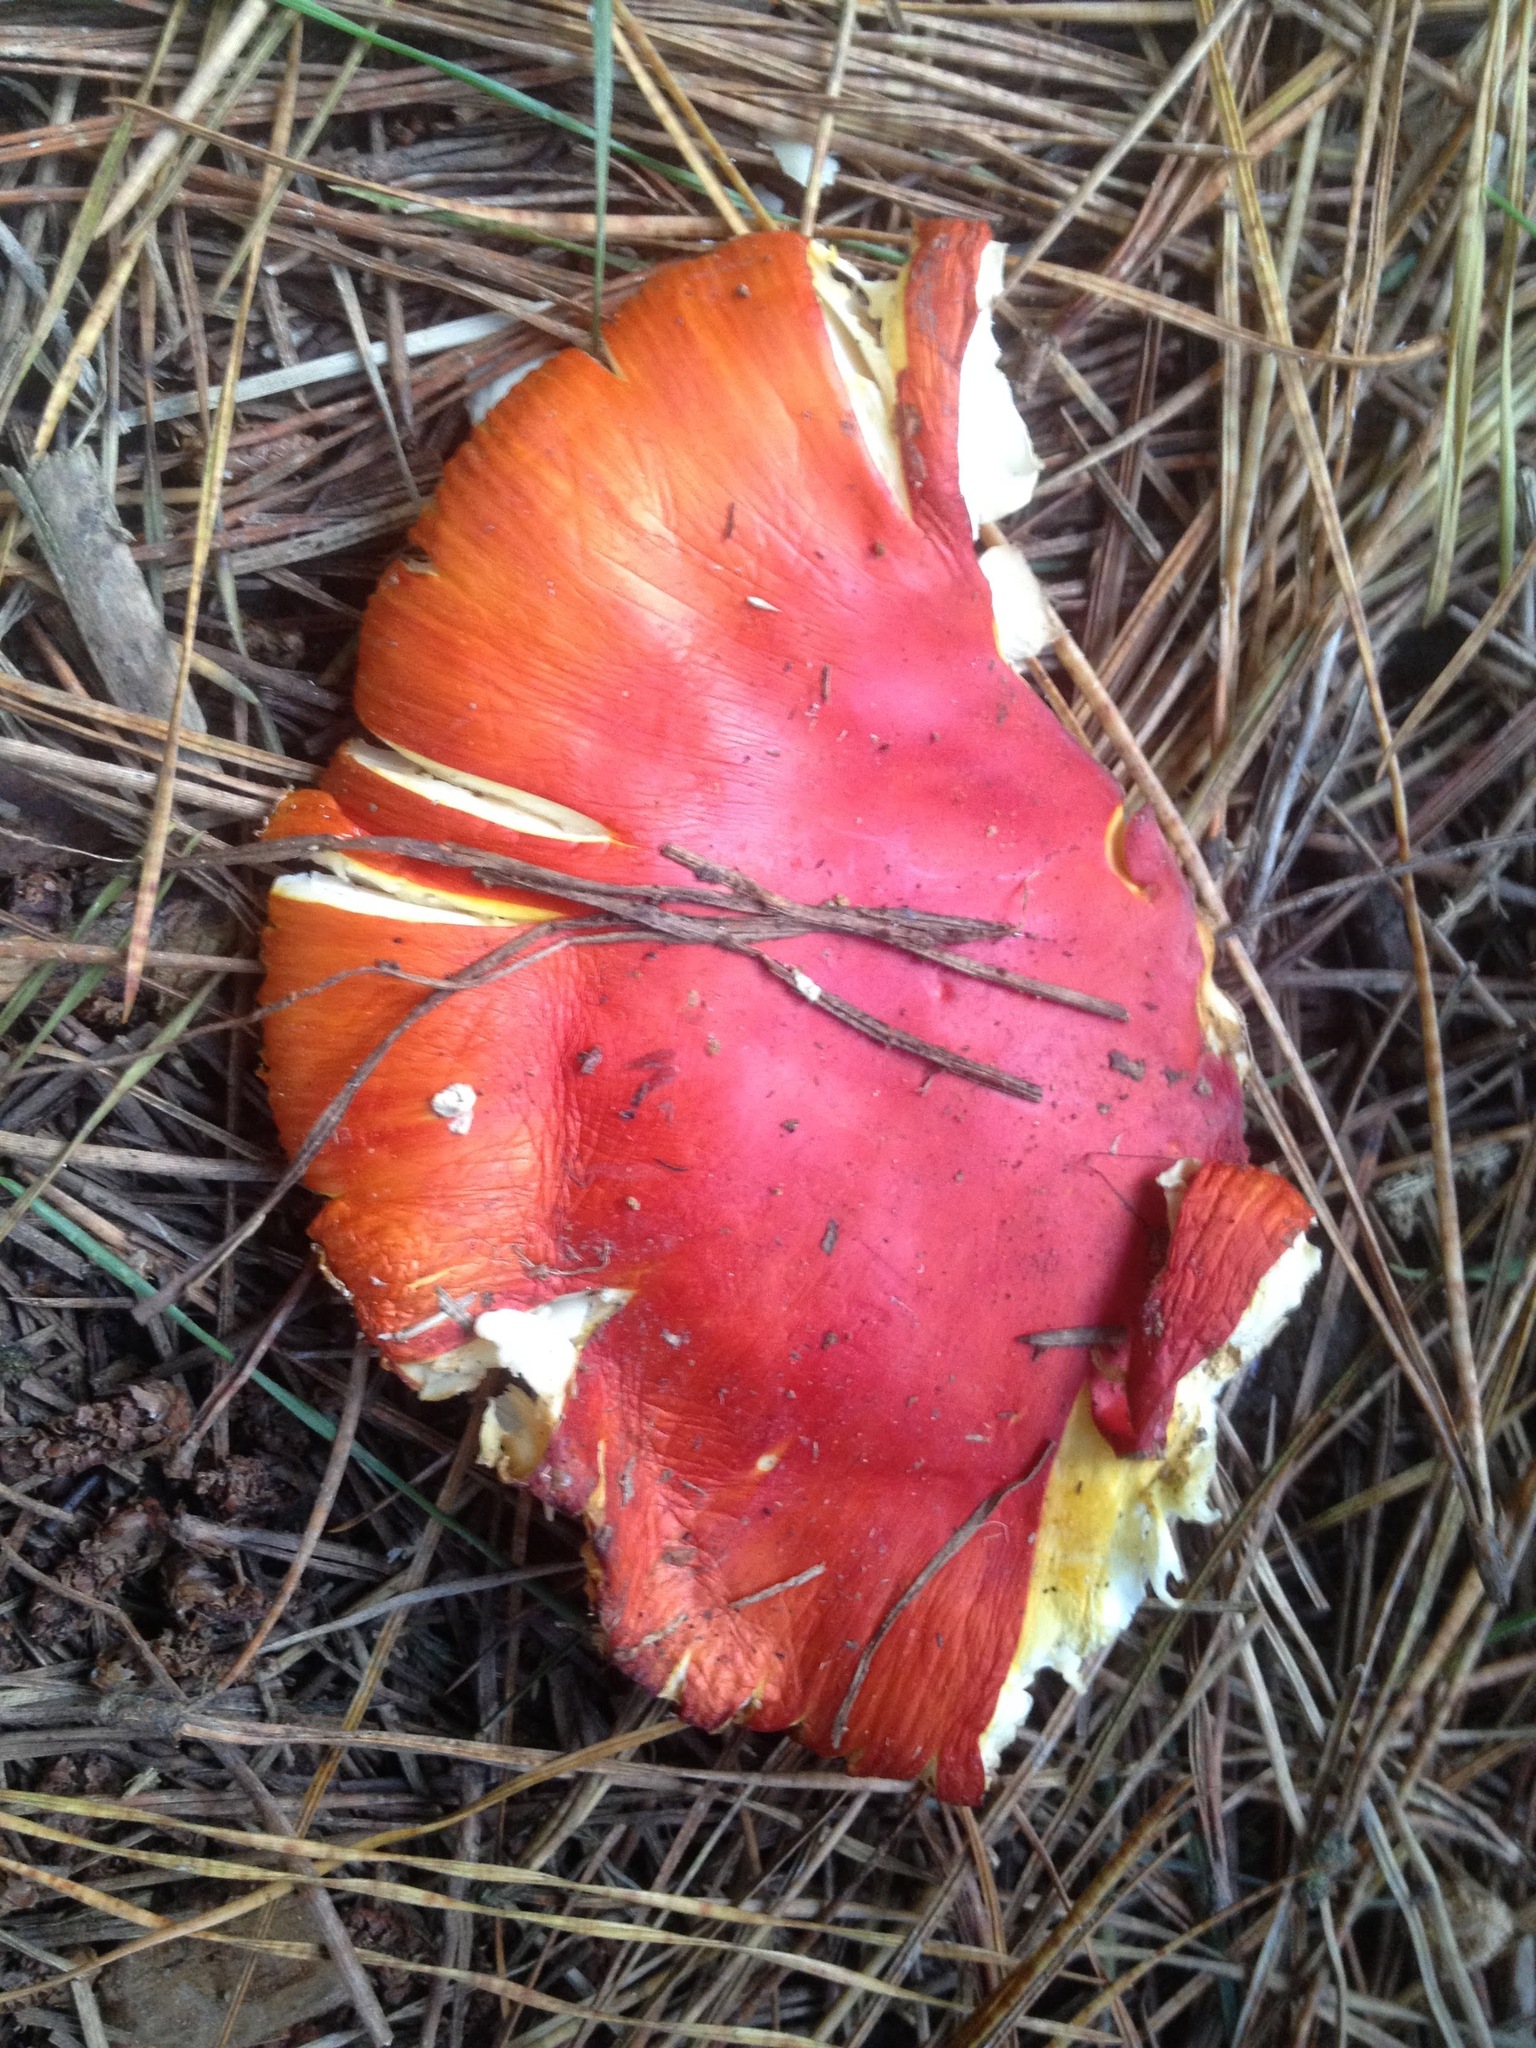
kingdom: Fungi
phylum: Basidiomycota
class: Agaricomycetes
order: Agaricales
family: Amanitaceae
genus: Amanita
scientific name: Amanita muscaria
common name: Fly agaric
